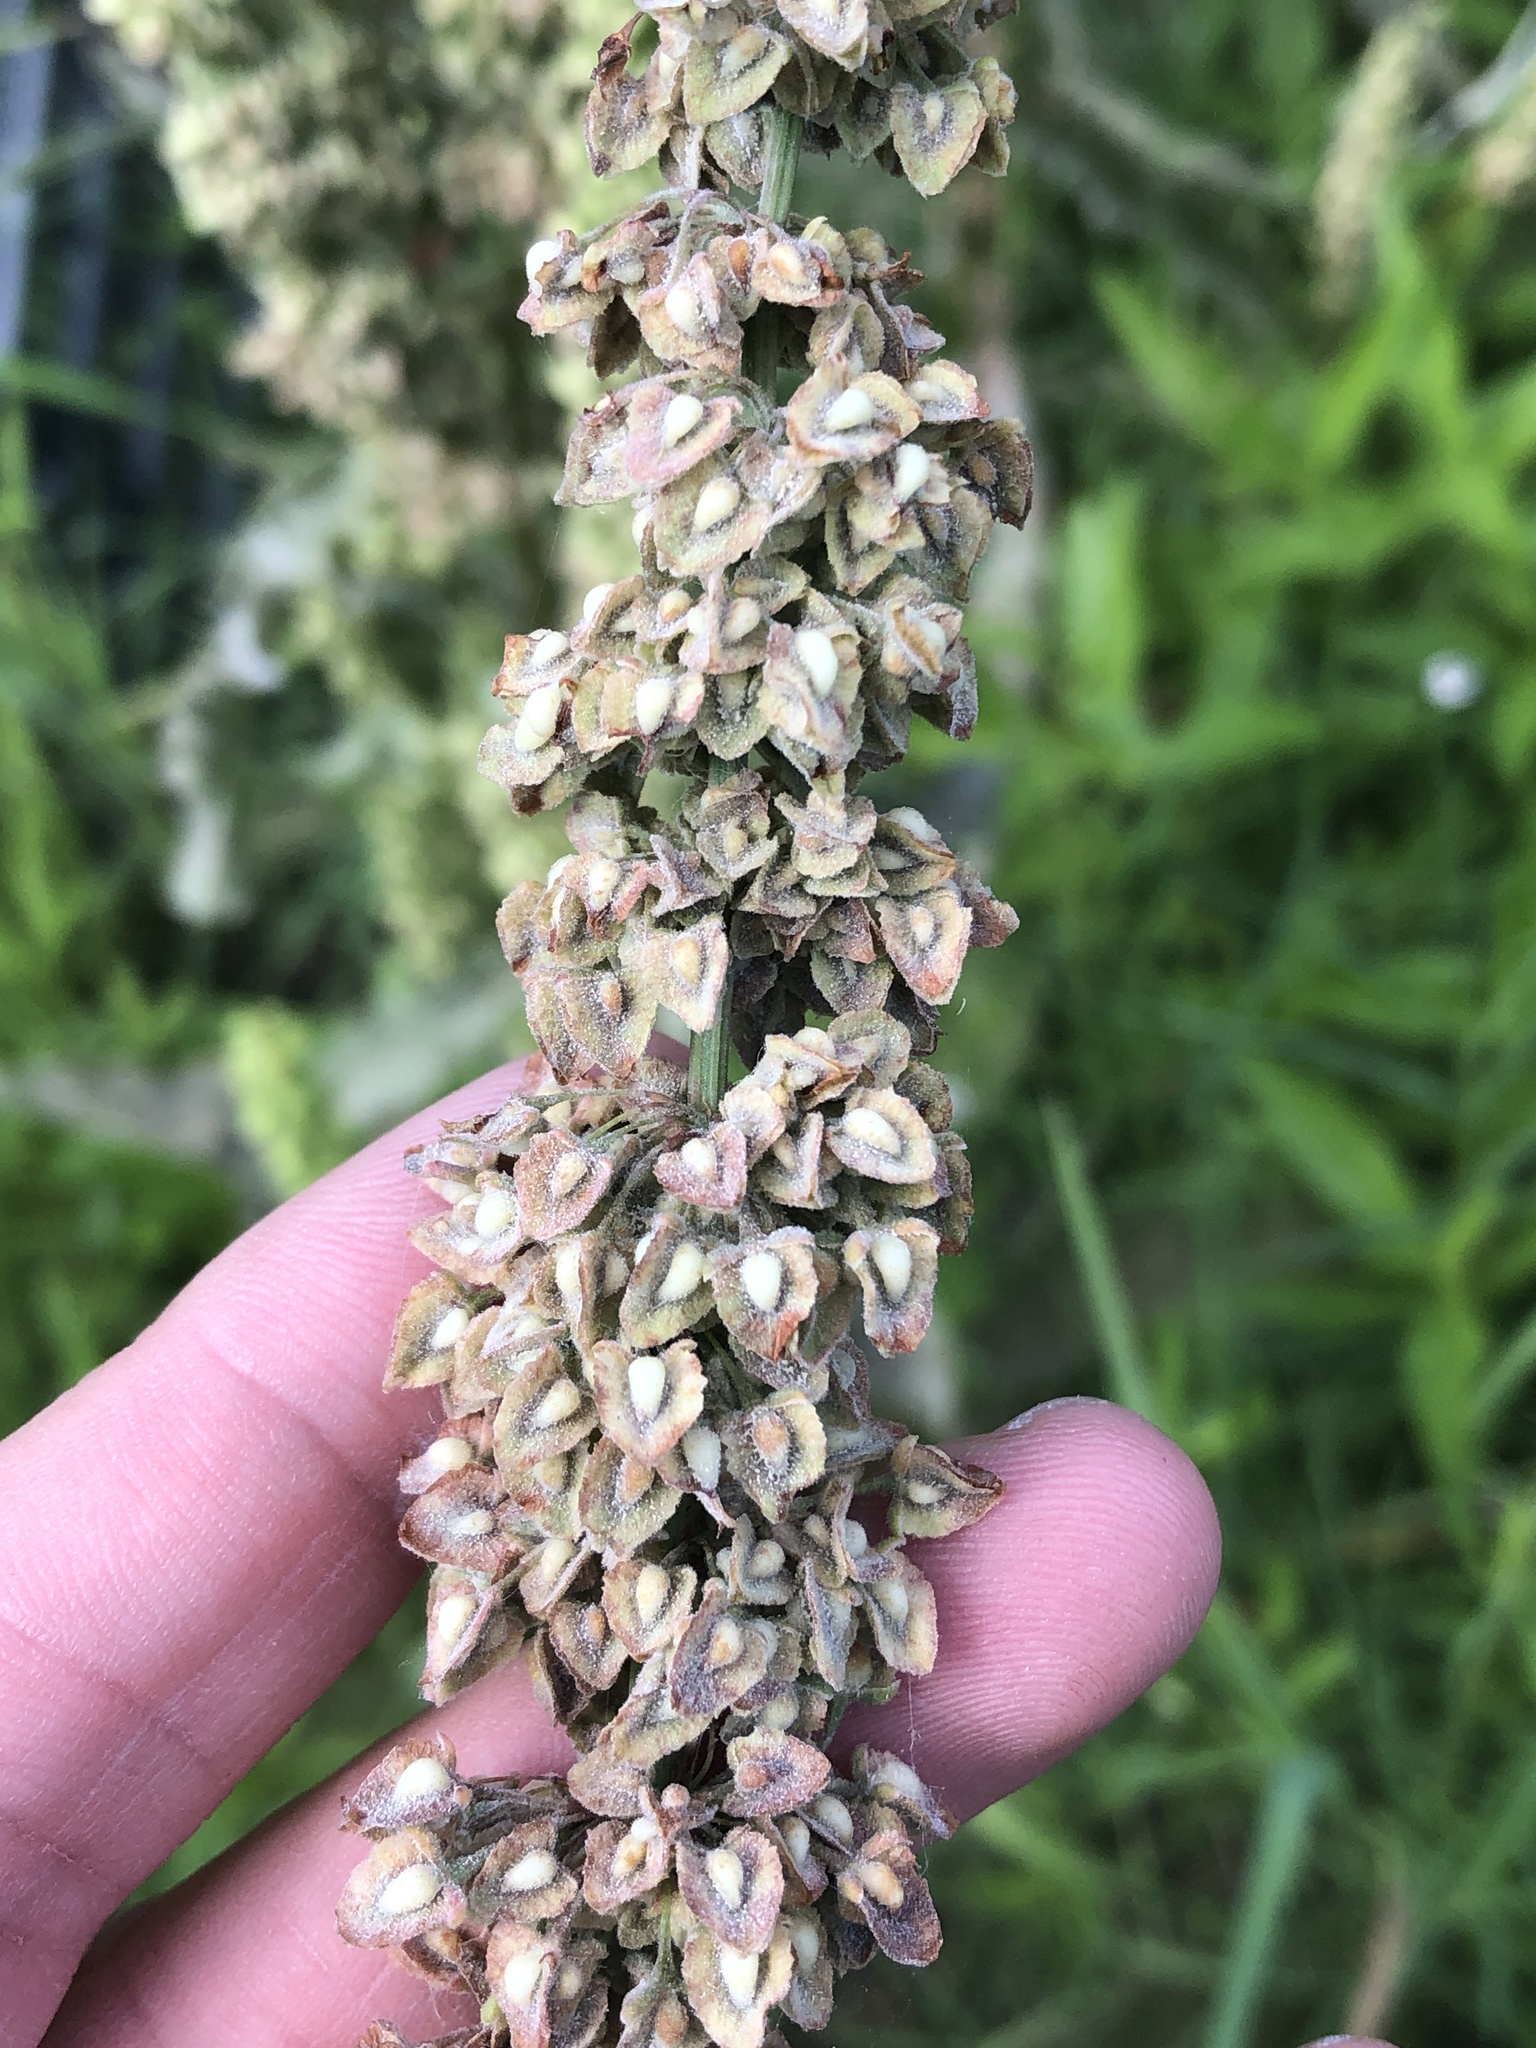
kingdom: Plantae
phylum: Tracheophyta
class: Magnoliopsida
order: Caryophyllales
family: Polygonaceae
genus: Rumex
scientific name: Rumex crispus
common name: Curled dock
